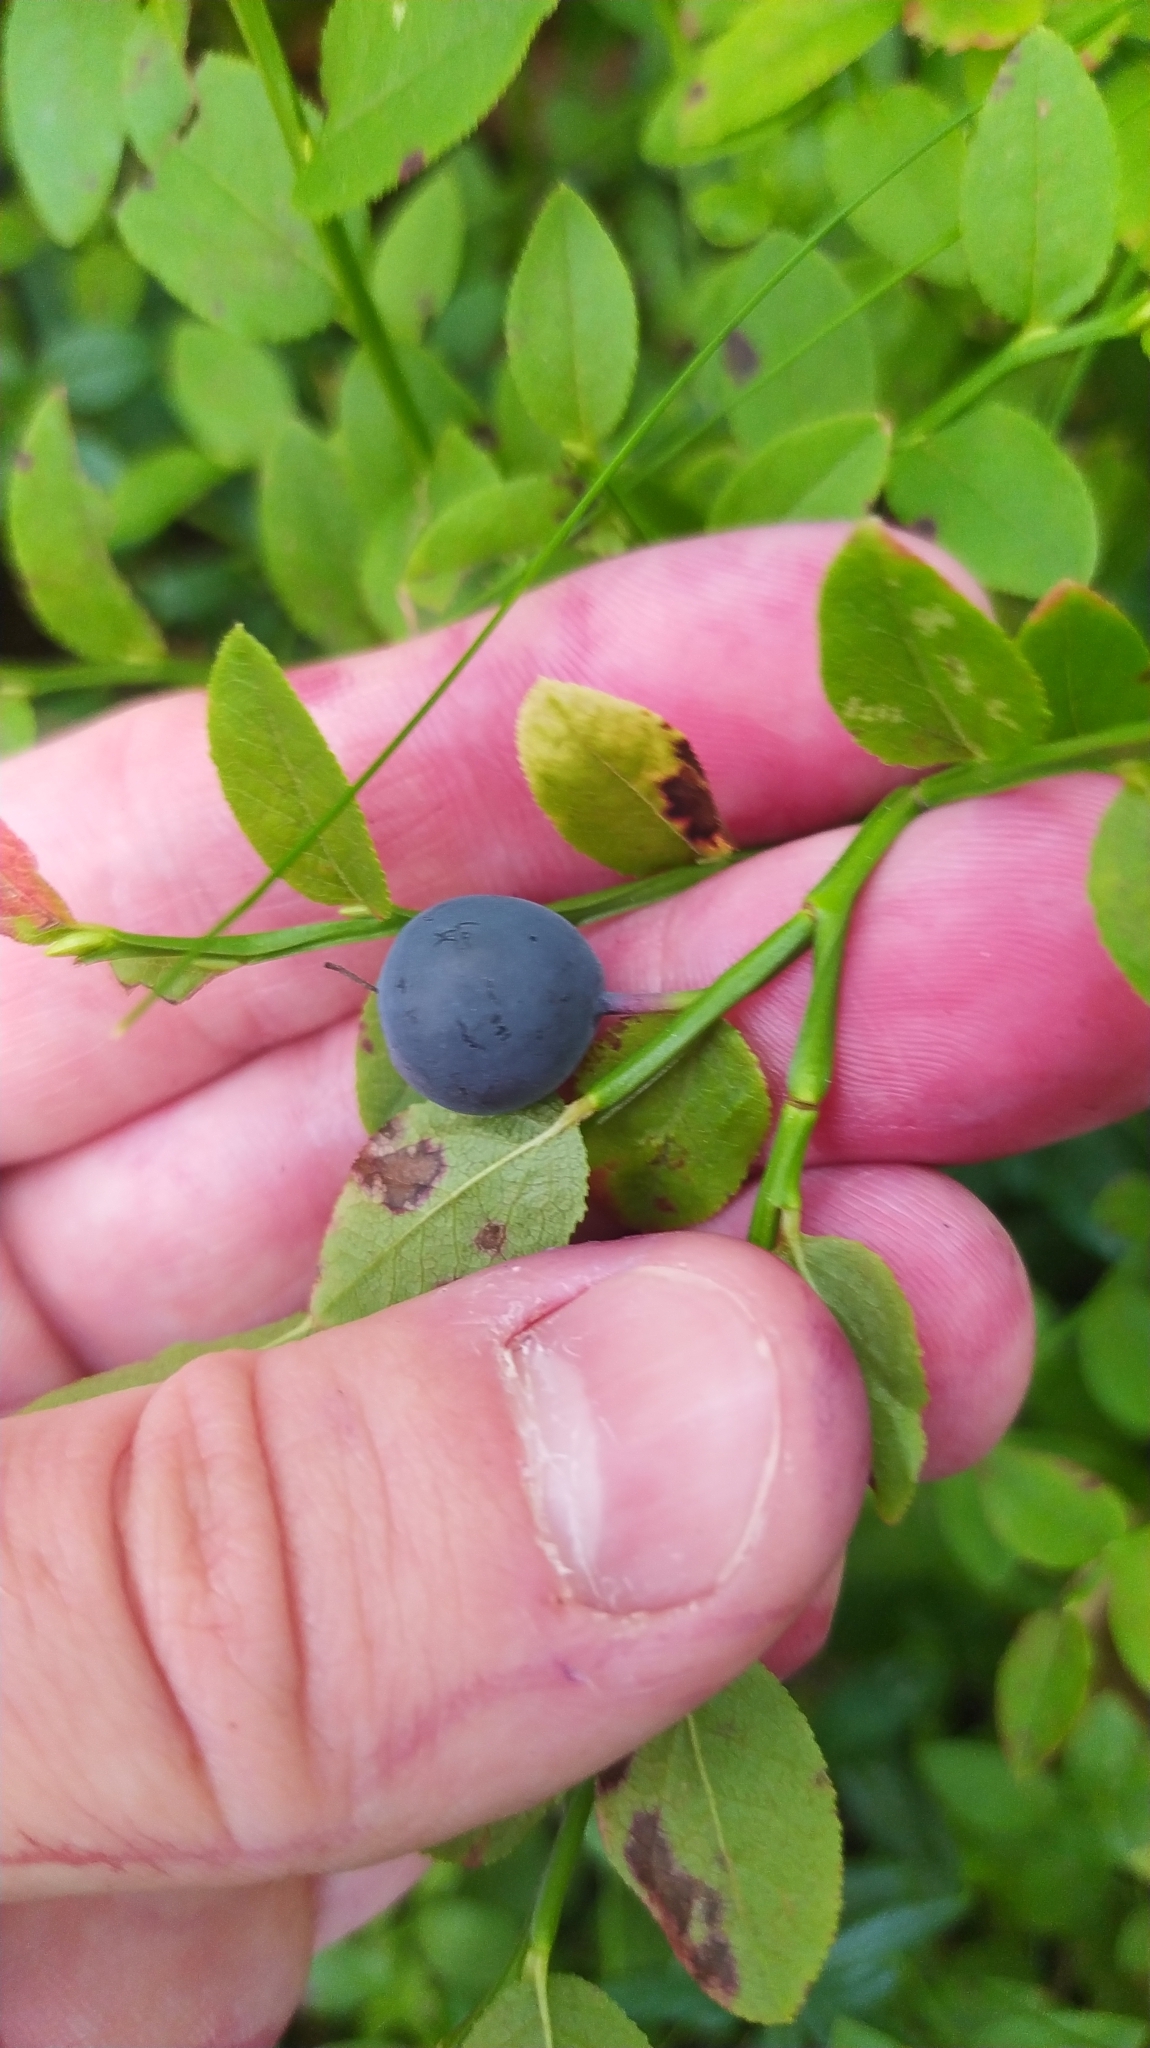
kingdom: Plantae
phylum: Tracheophyta
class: Magnoliopsida
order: Ericales
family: Ericaceae
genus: Vaccinium
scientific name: Vaccinium myrtillus
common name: Bilberry
